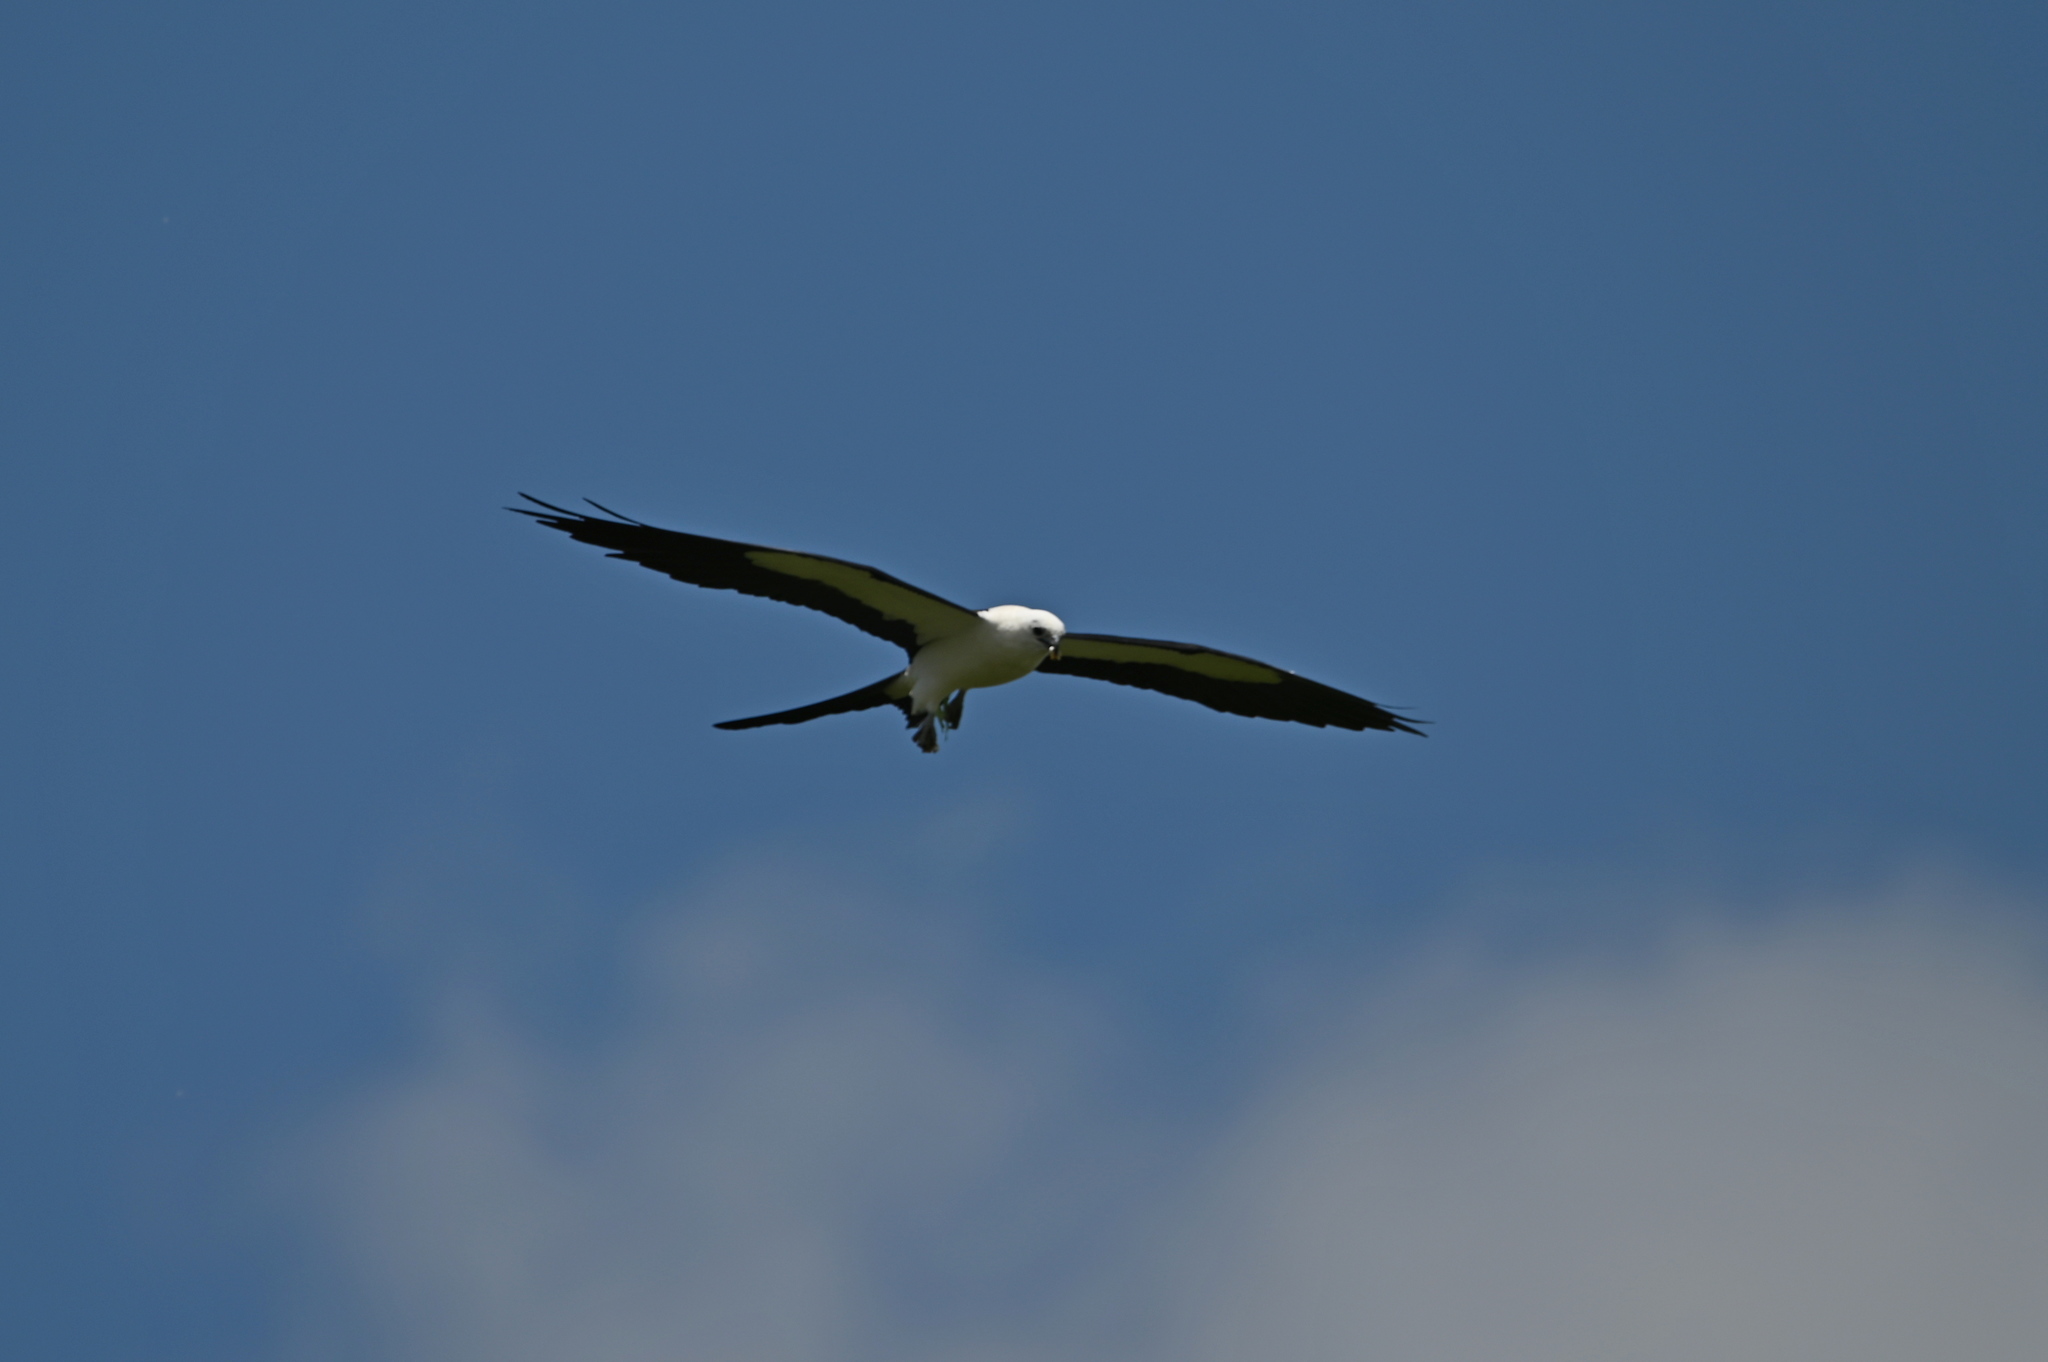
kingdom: Animalia
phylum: Chordata
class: Aves
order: Accipitriformes
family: Accipitridae
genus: Elanoides
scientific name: Elanoides forficatus
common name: Swallow-tailed kite
